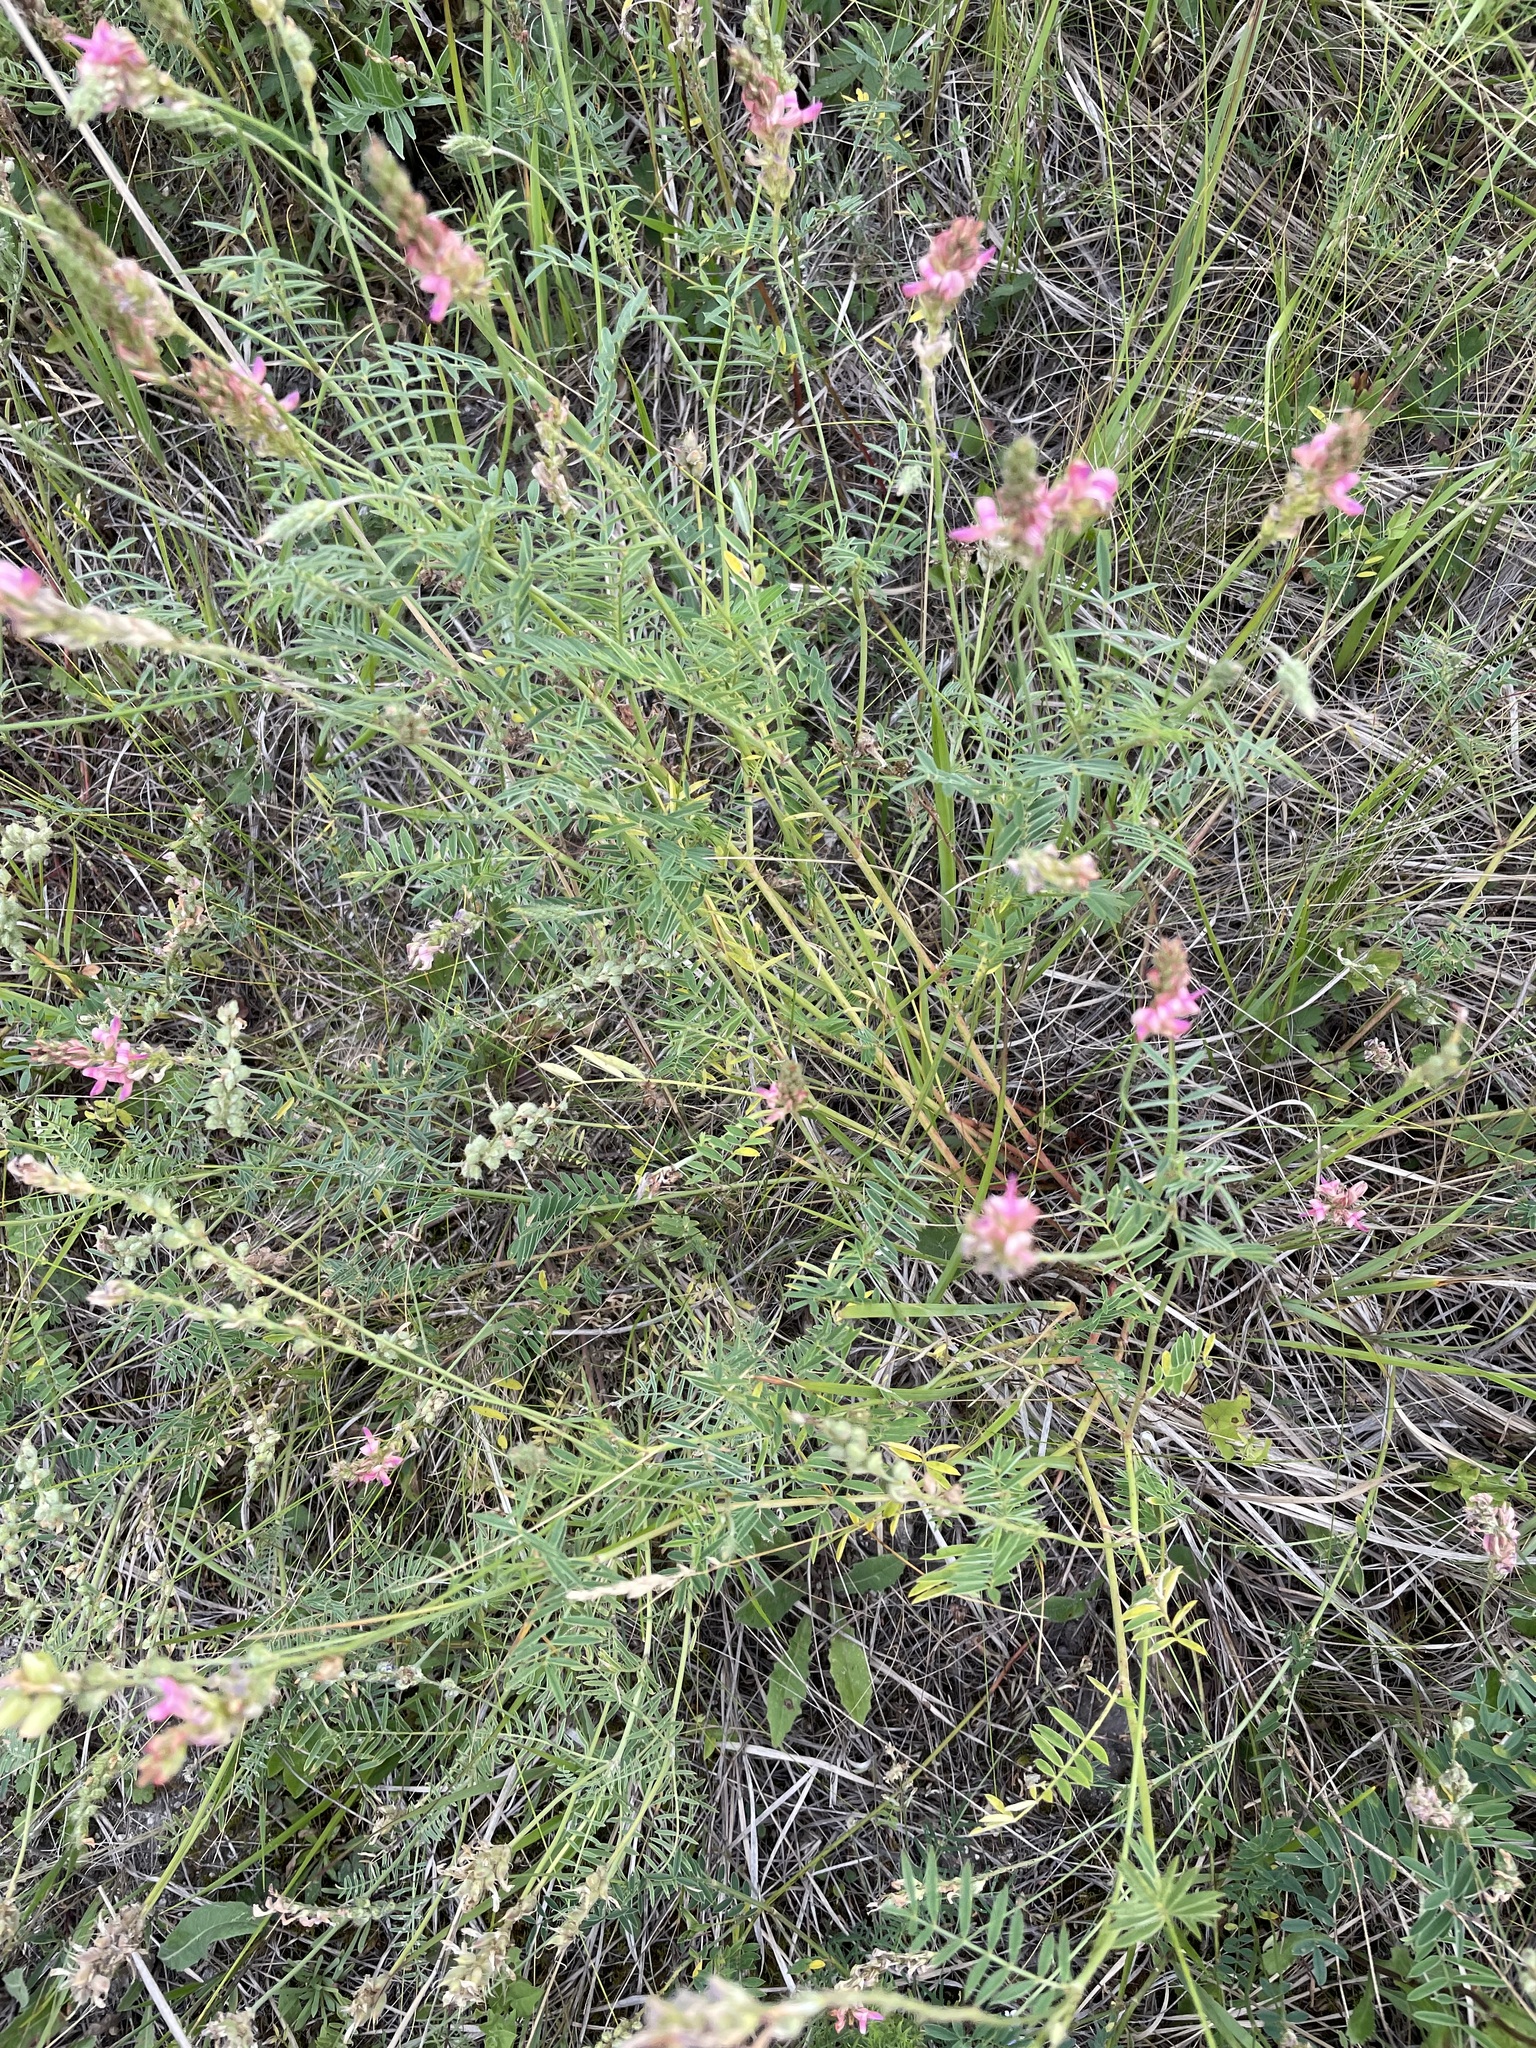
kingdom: Plantae
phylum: Tracheophyta
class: Magnoliopsida
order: Fabales
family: Fabaceae
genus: Onobrychis
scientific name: Onobrychis arenaria
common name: Sand esparcet
